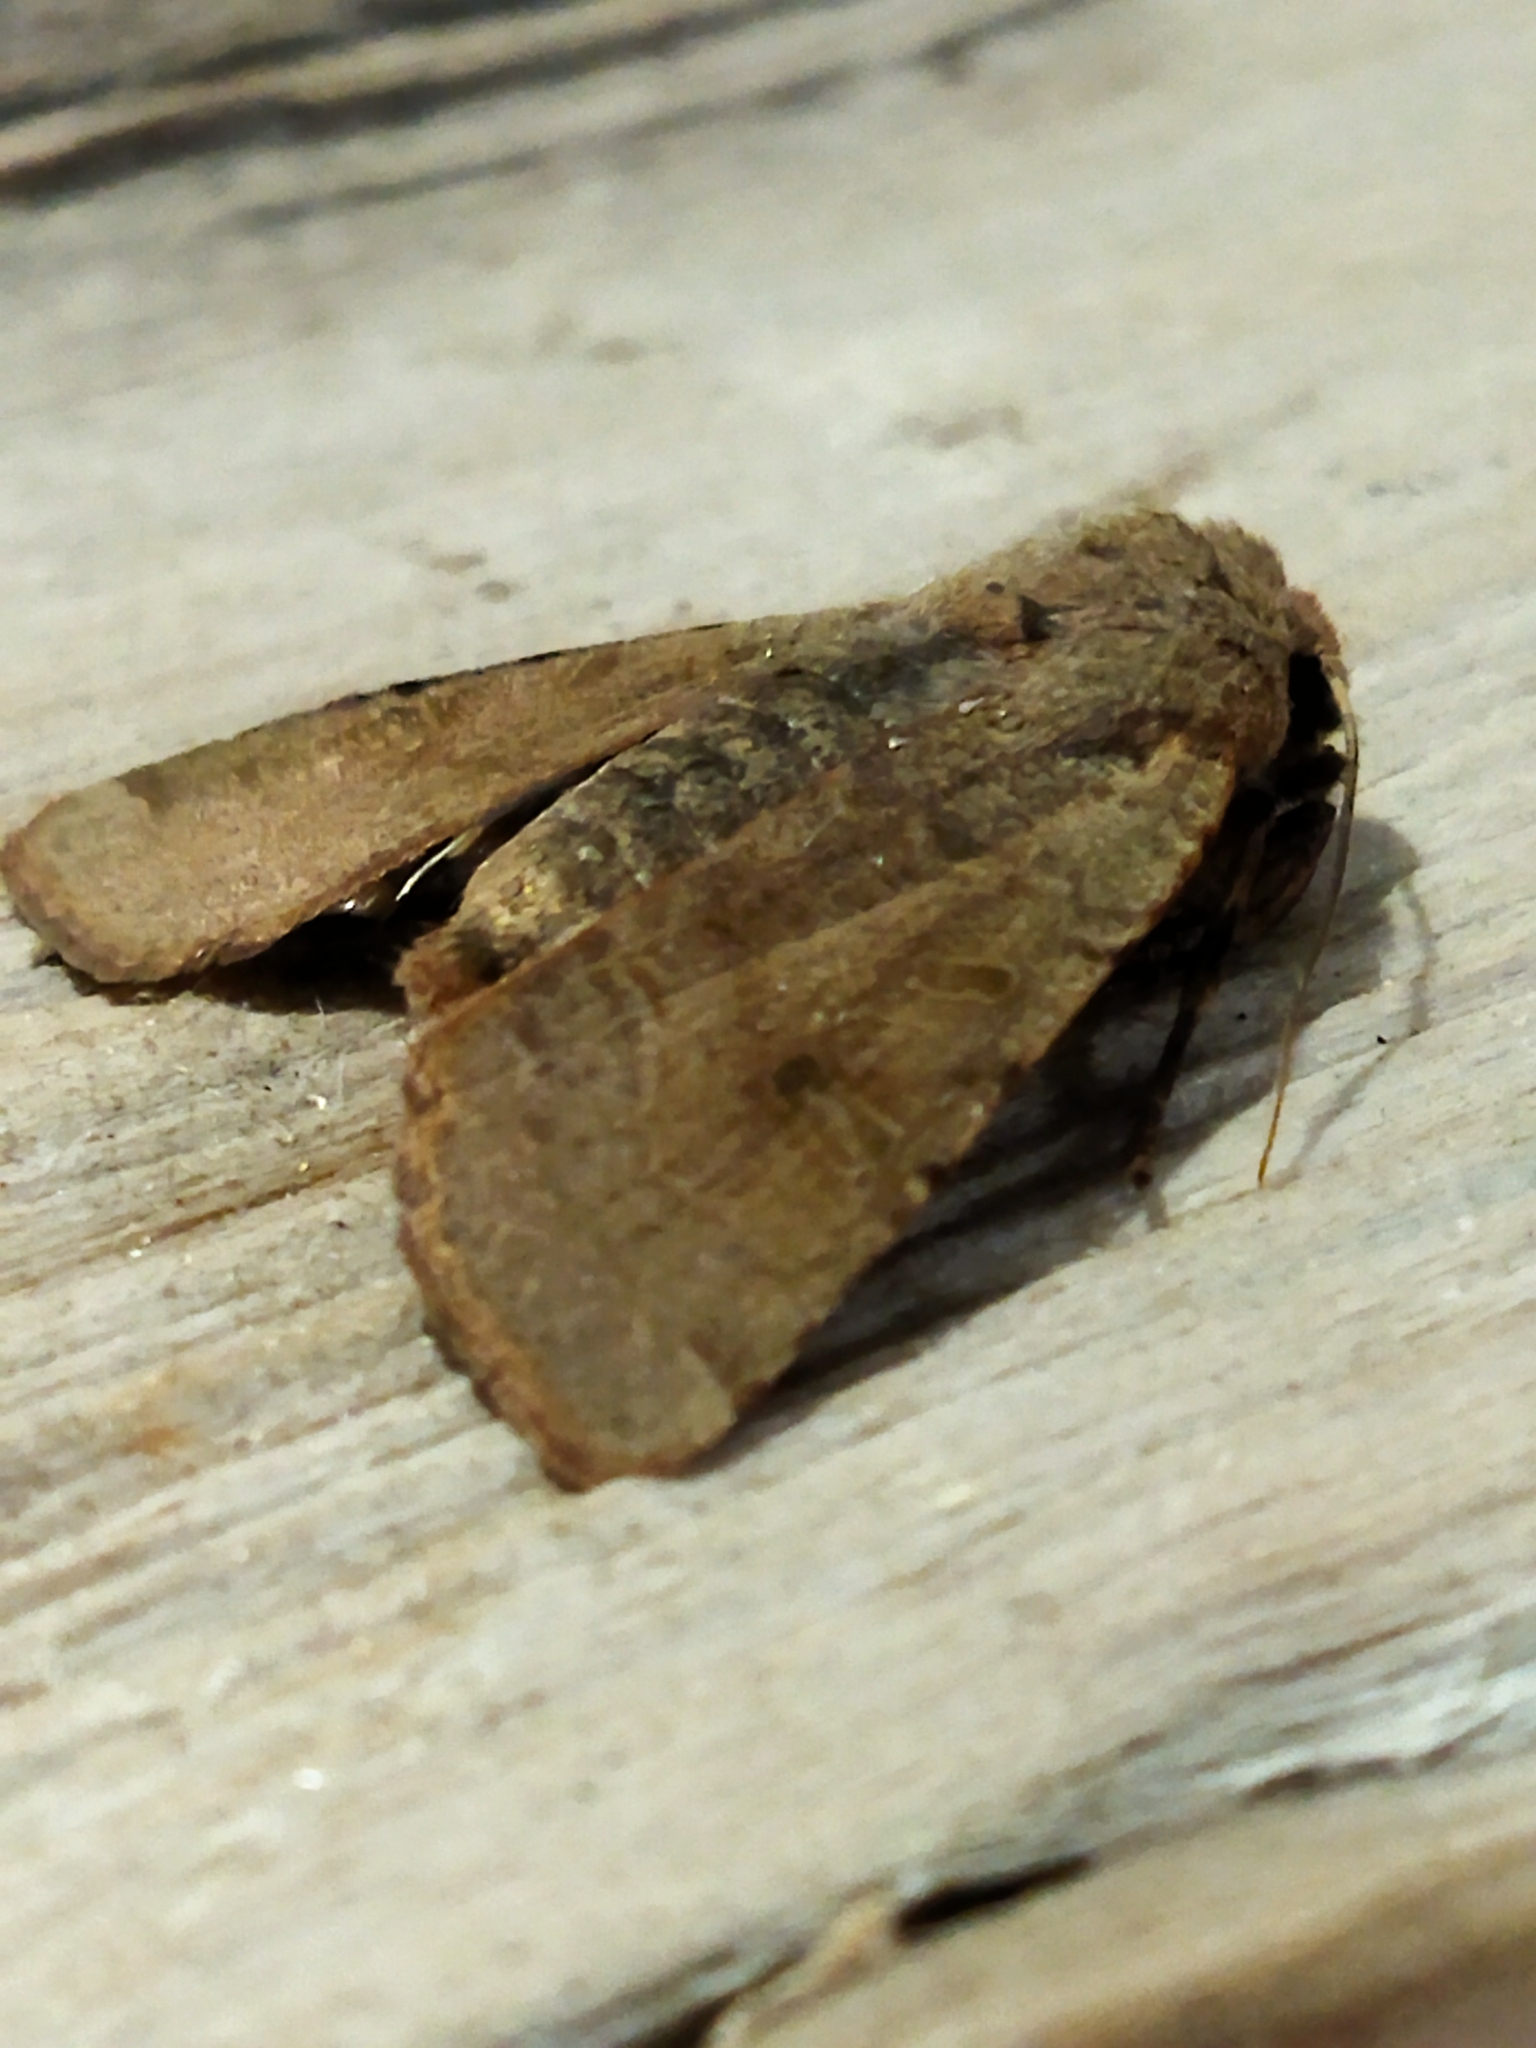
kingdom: Animalia
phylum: Arthropoda
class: Insecta
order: Lepidoptera
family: Noctuidae
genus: Agrochola
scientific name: Agrochola lychnidis
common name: Beaded chestnut
